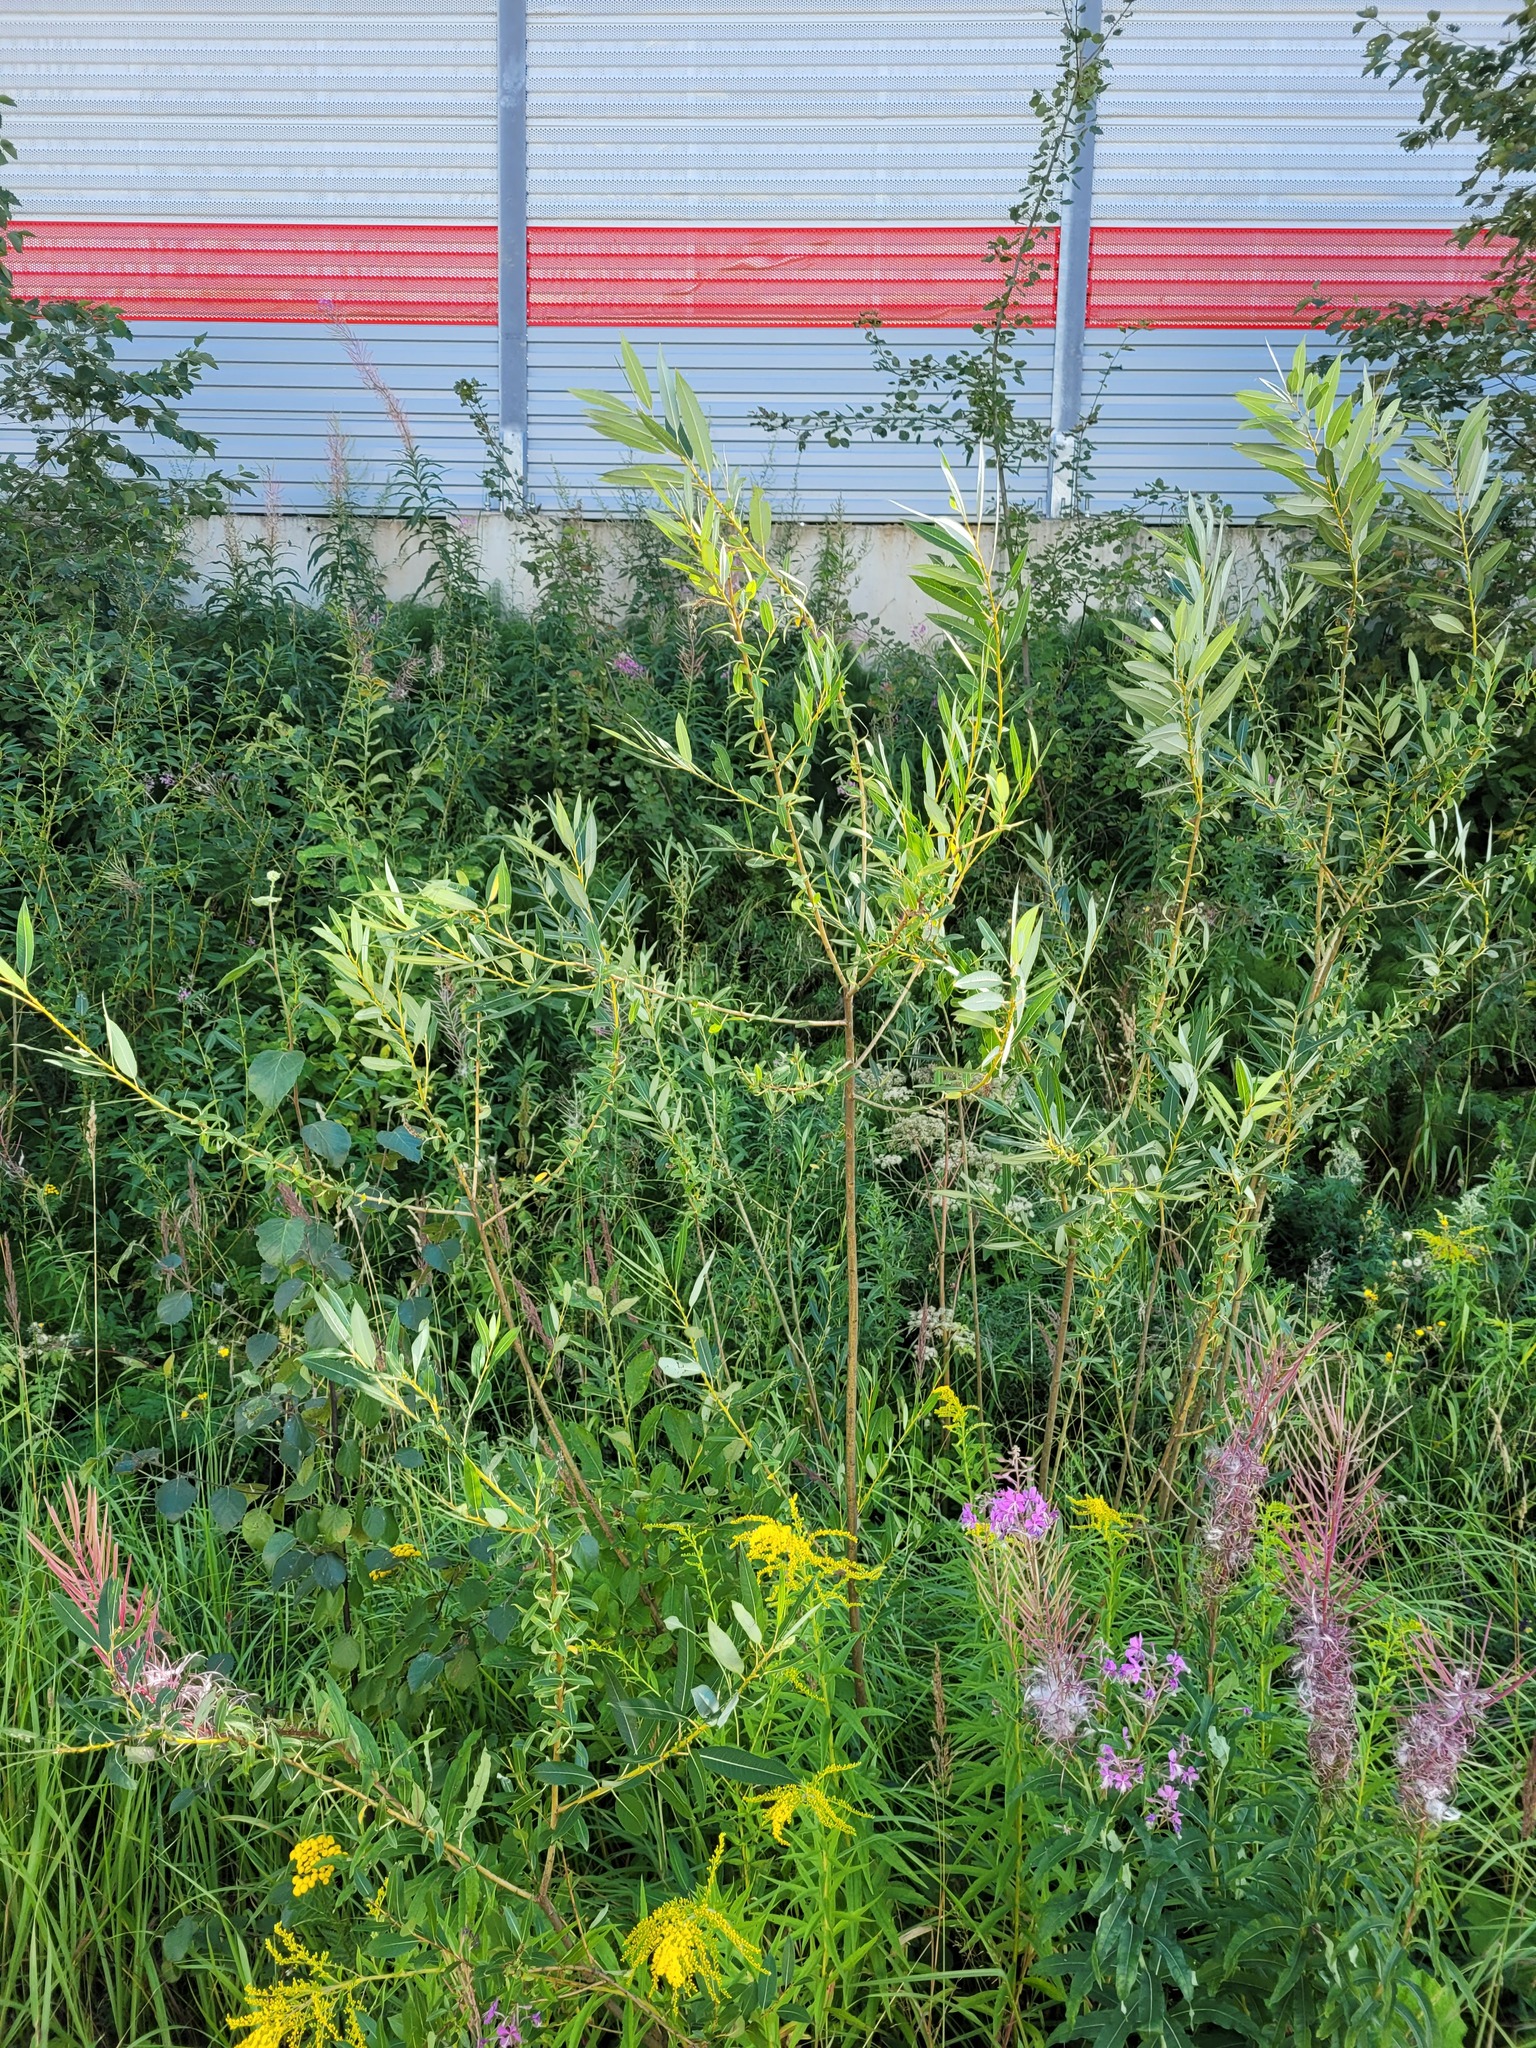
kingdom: Plantae
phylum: Tracheophyta
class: Magnoliopsida
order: Malpighiales
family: Salicaceae
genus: Salix
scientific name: Salix triandra
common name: Almond willow
